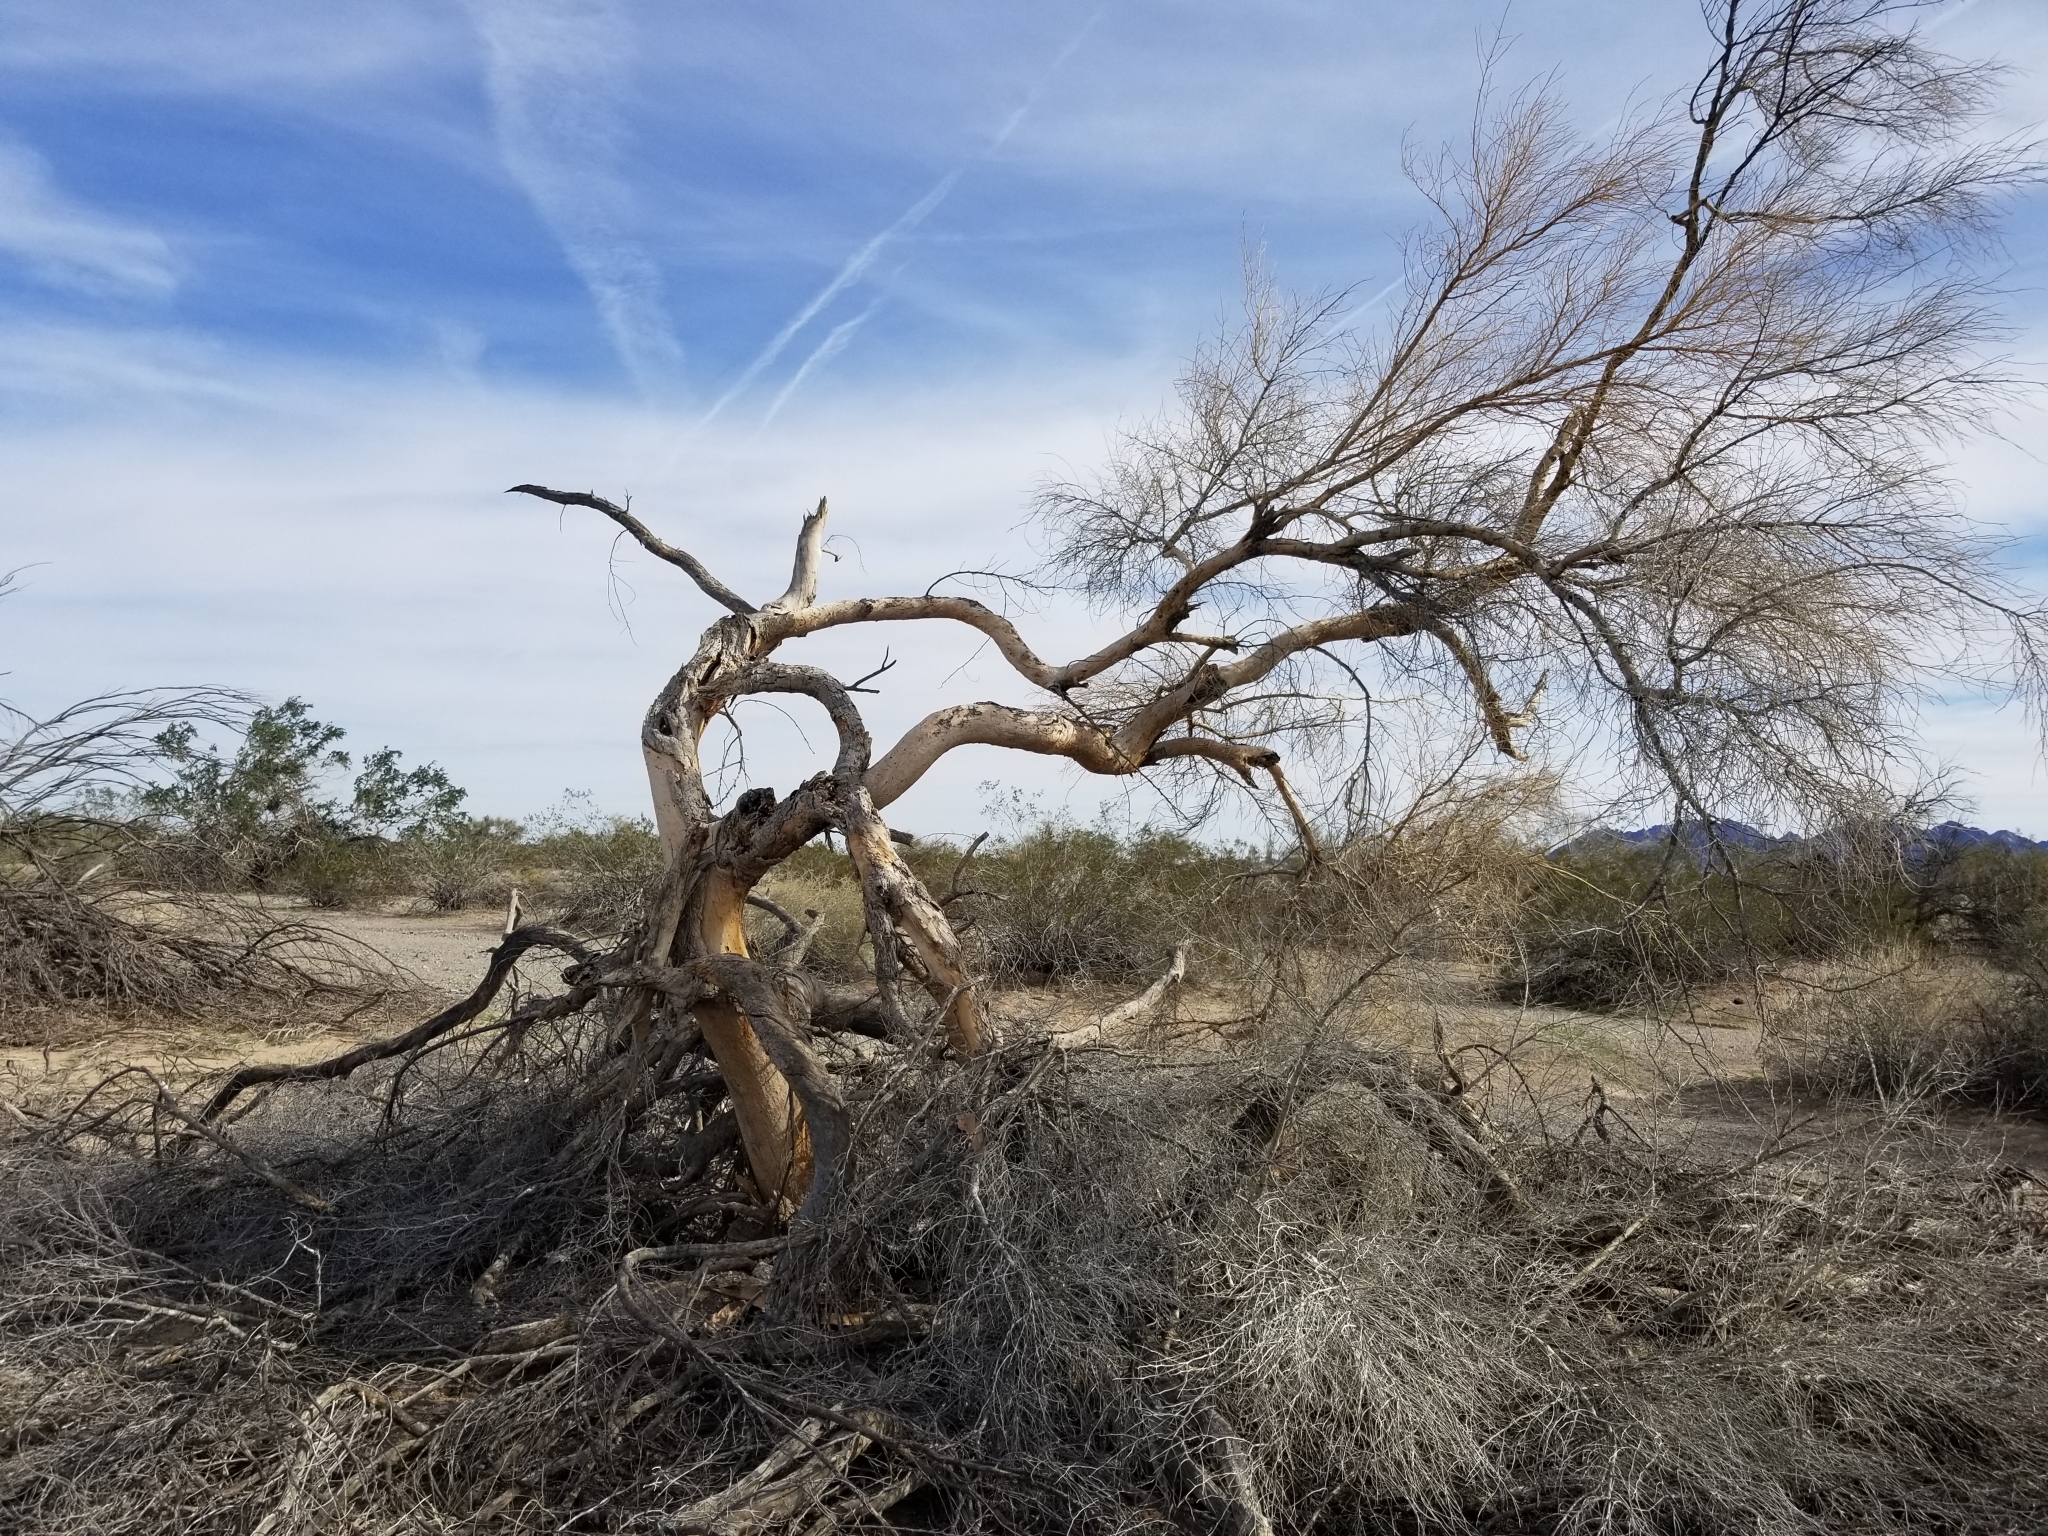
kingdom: Plantae
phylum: Tracheophyta
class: Magnoliopsida
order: Fabales
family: Fabaceae
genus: Parkinsonia
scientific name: Parkinsonia florida
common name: Blue paloverde
